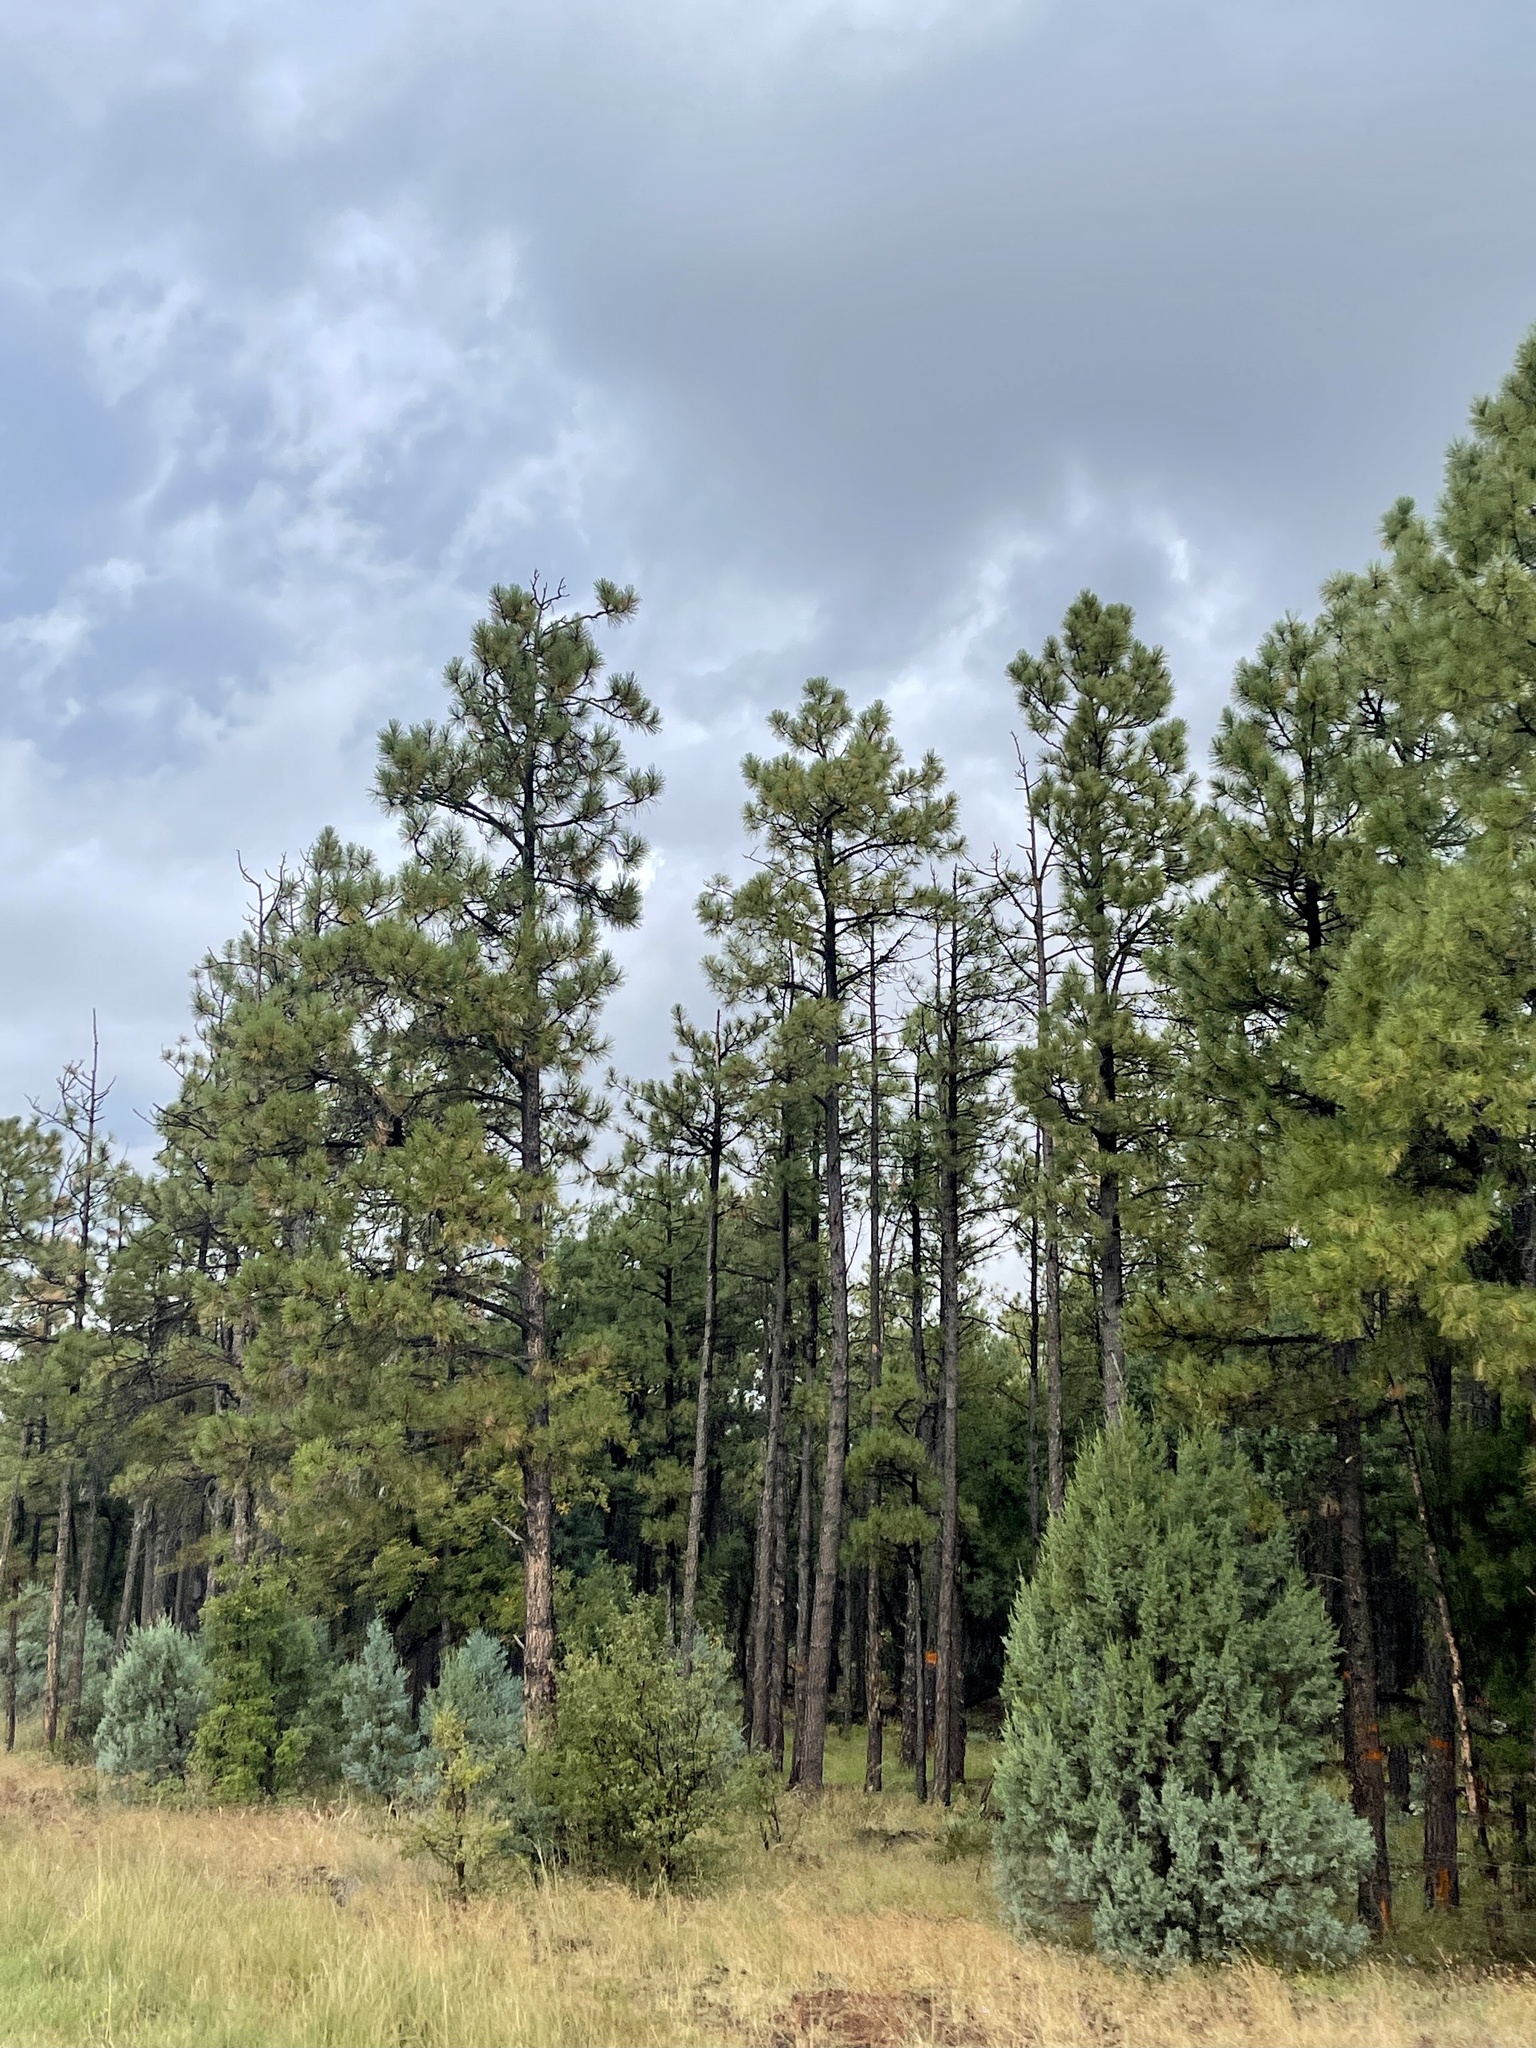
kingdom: Plantae
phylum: Tracheophyta
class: Pinopsida
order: Pinales
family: Pinaceae
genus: Pinus
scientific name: Pinus ponderosa
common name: Western yellow-pine
